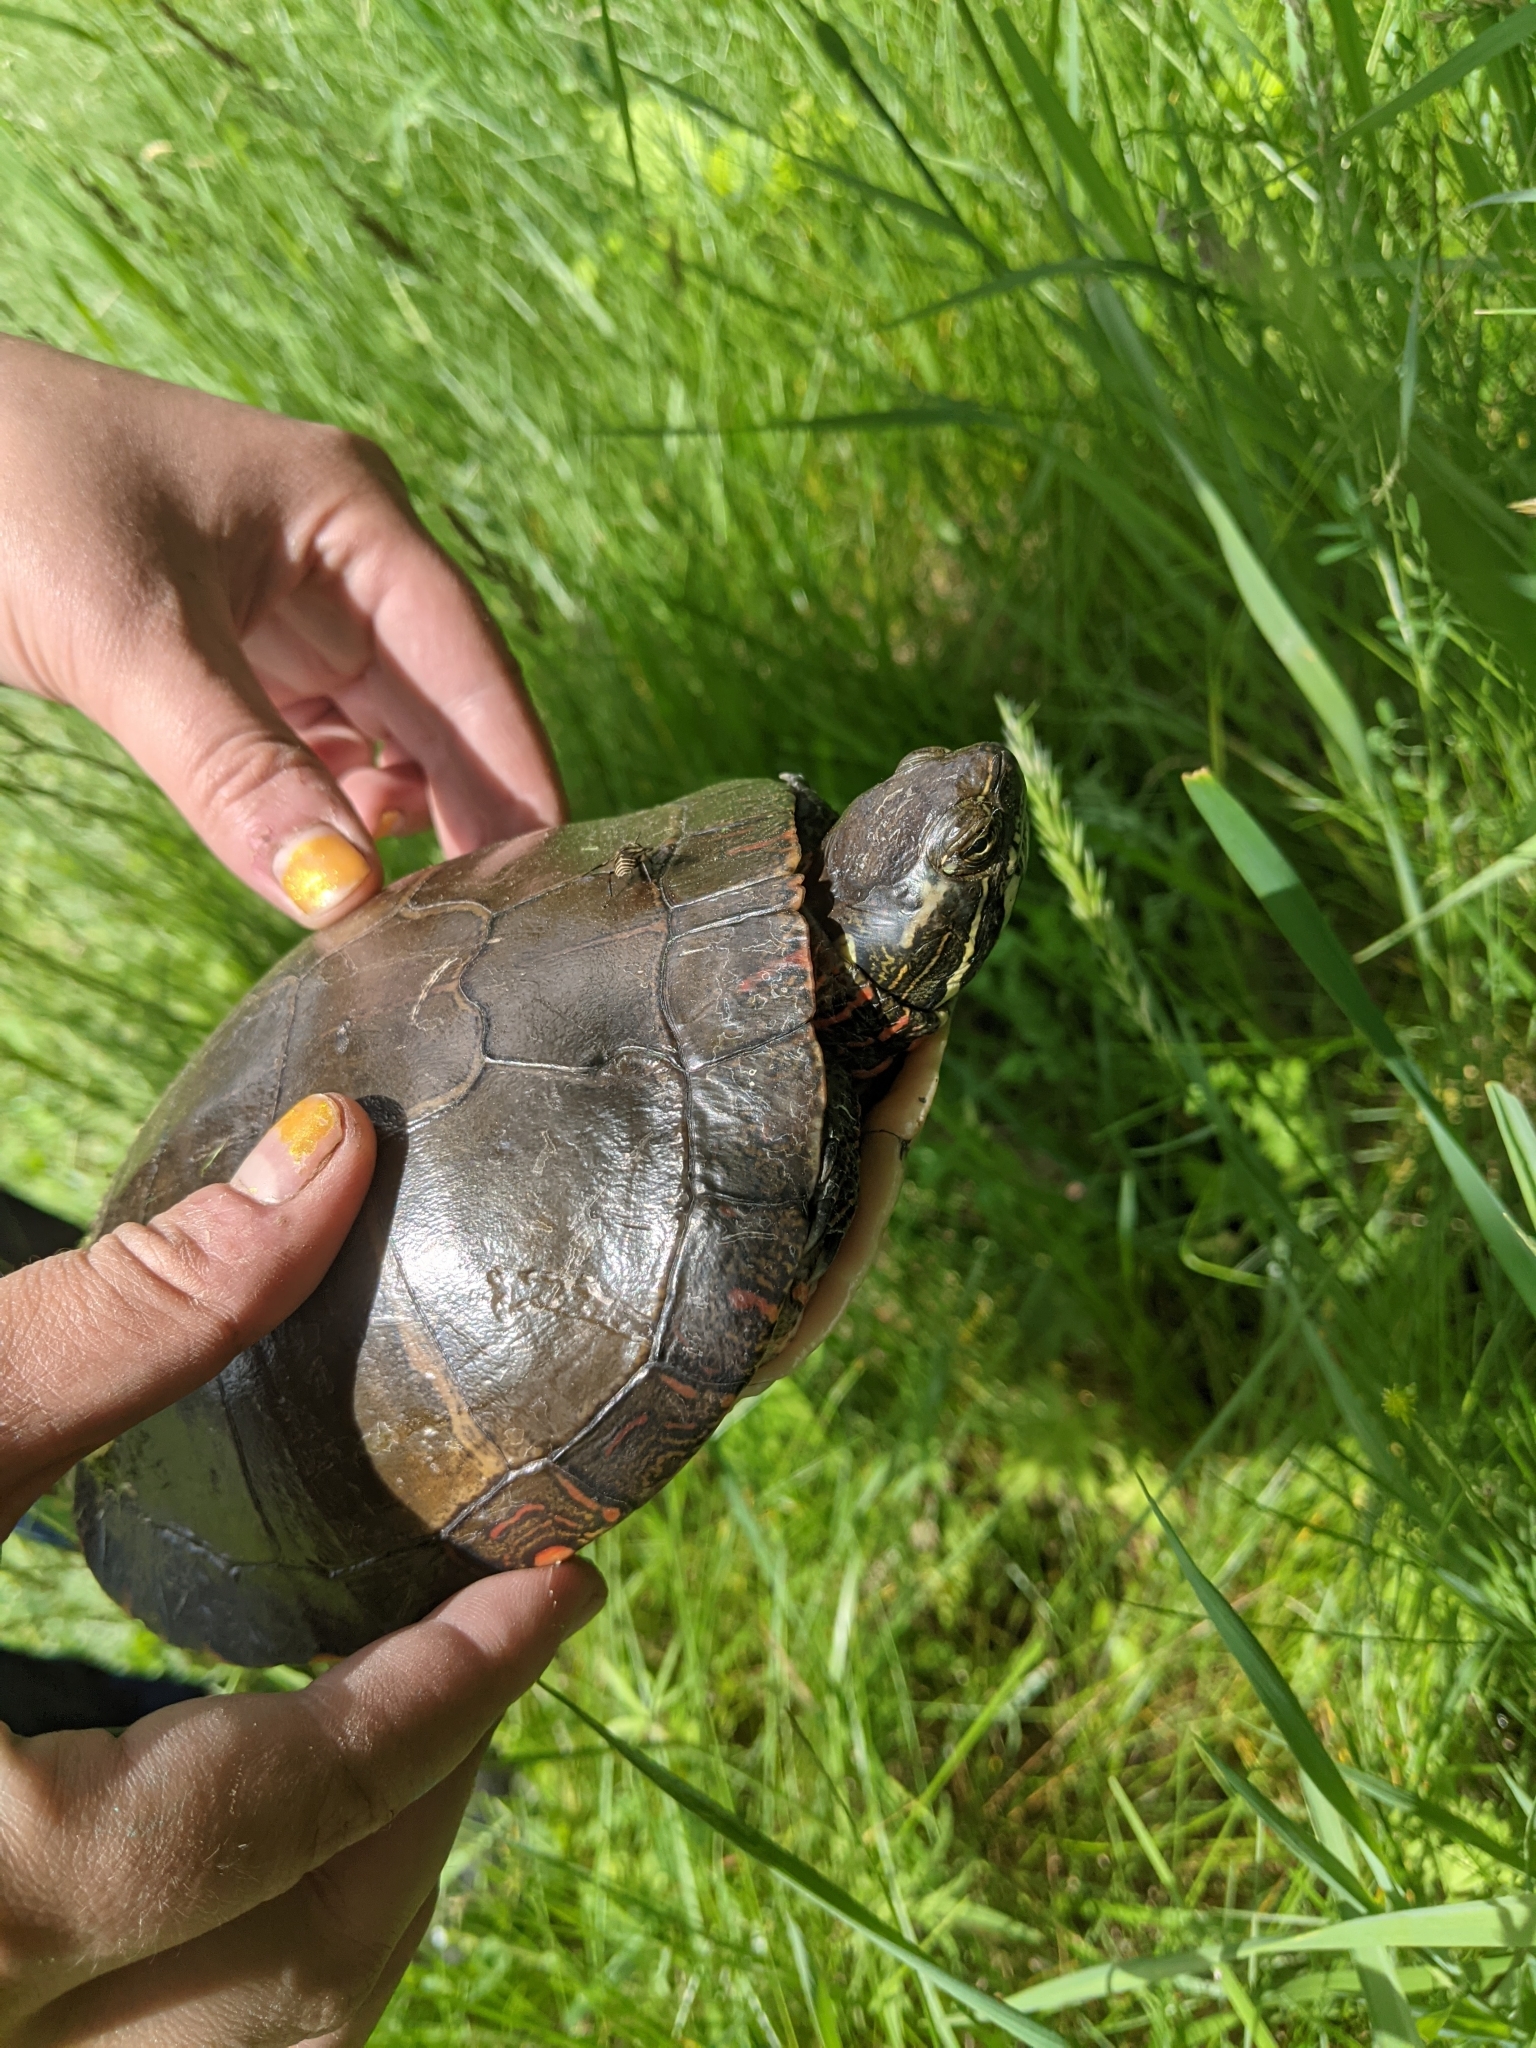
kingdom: Animalia
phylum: Chordata
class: Testudines
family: Emydidae
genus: Chrysemys
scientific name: Chrysemys picta
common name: Painted turtle
